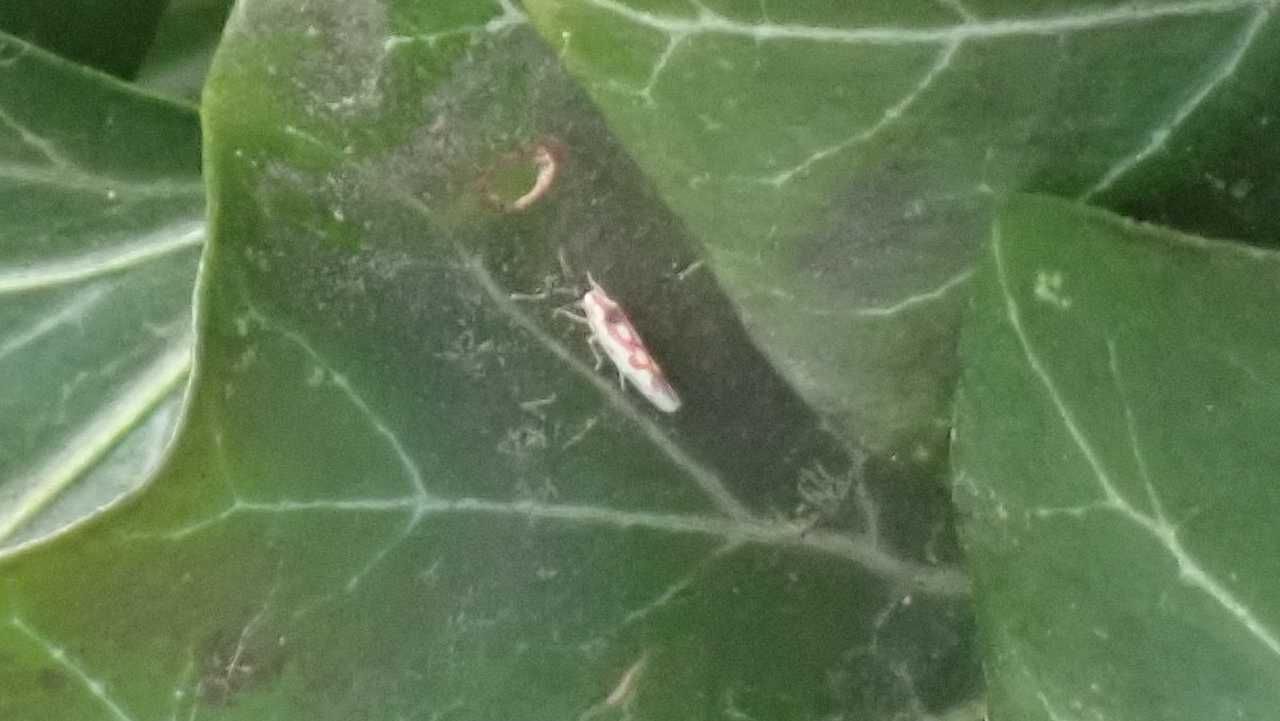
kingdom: Animalia
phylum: Arthropoda
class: Insecta
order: Hemiptera
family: Cicadellidae
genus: Zygina
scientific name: Zygina flammigera
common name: Leafhopper
